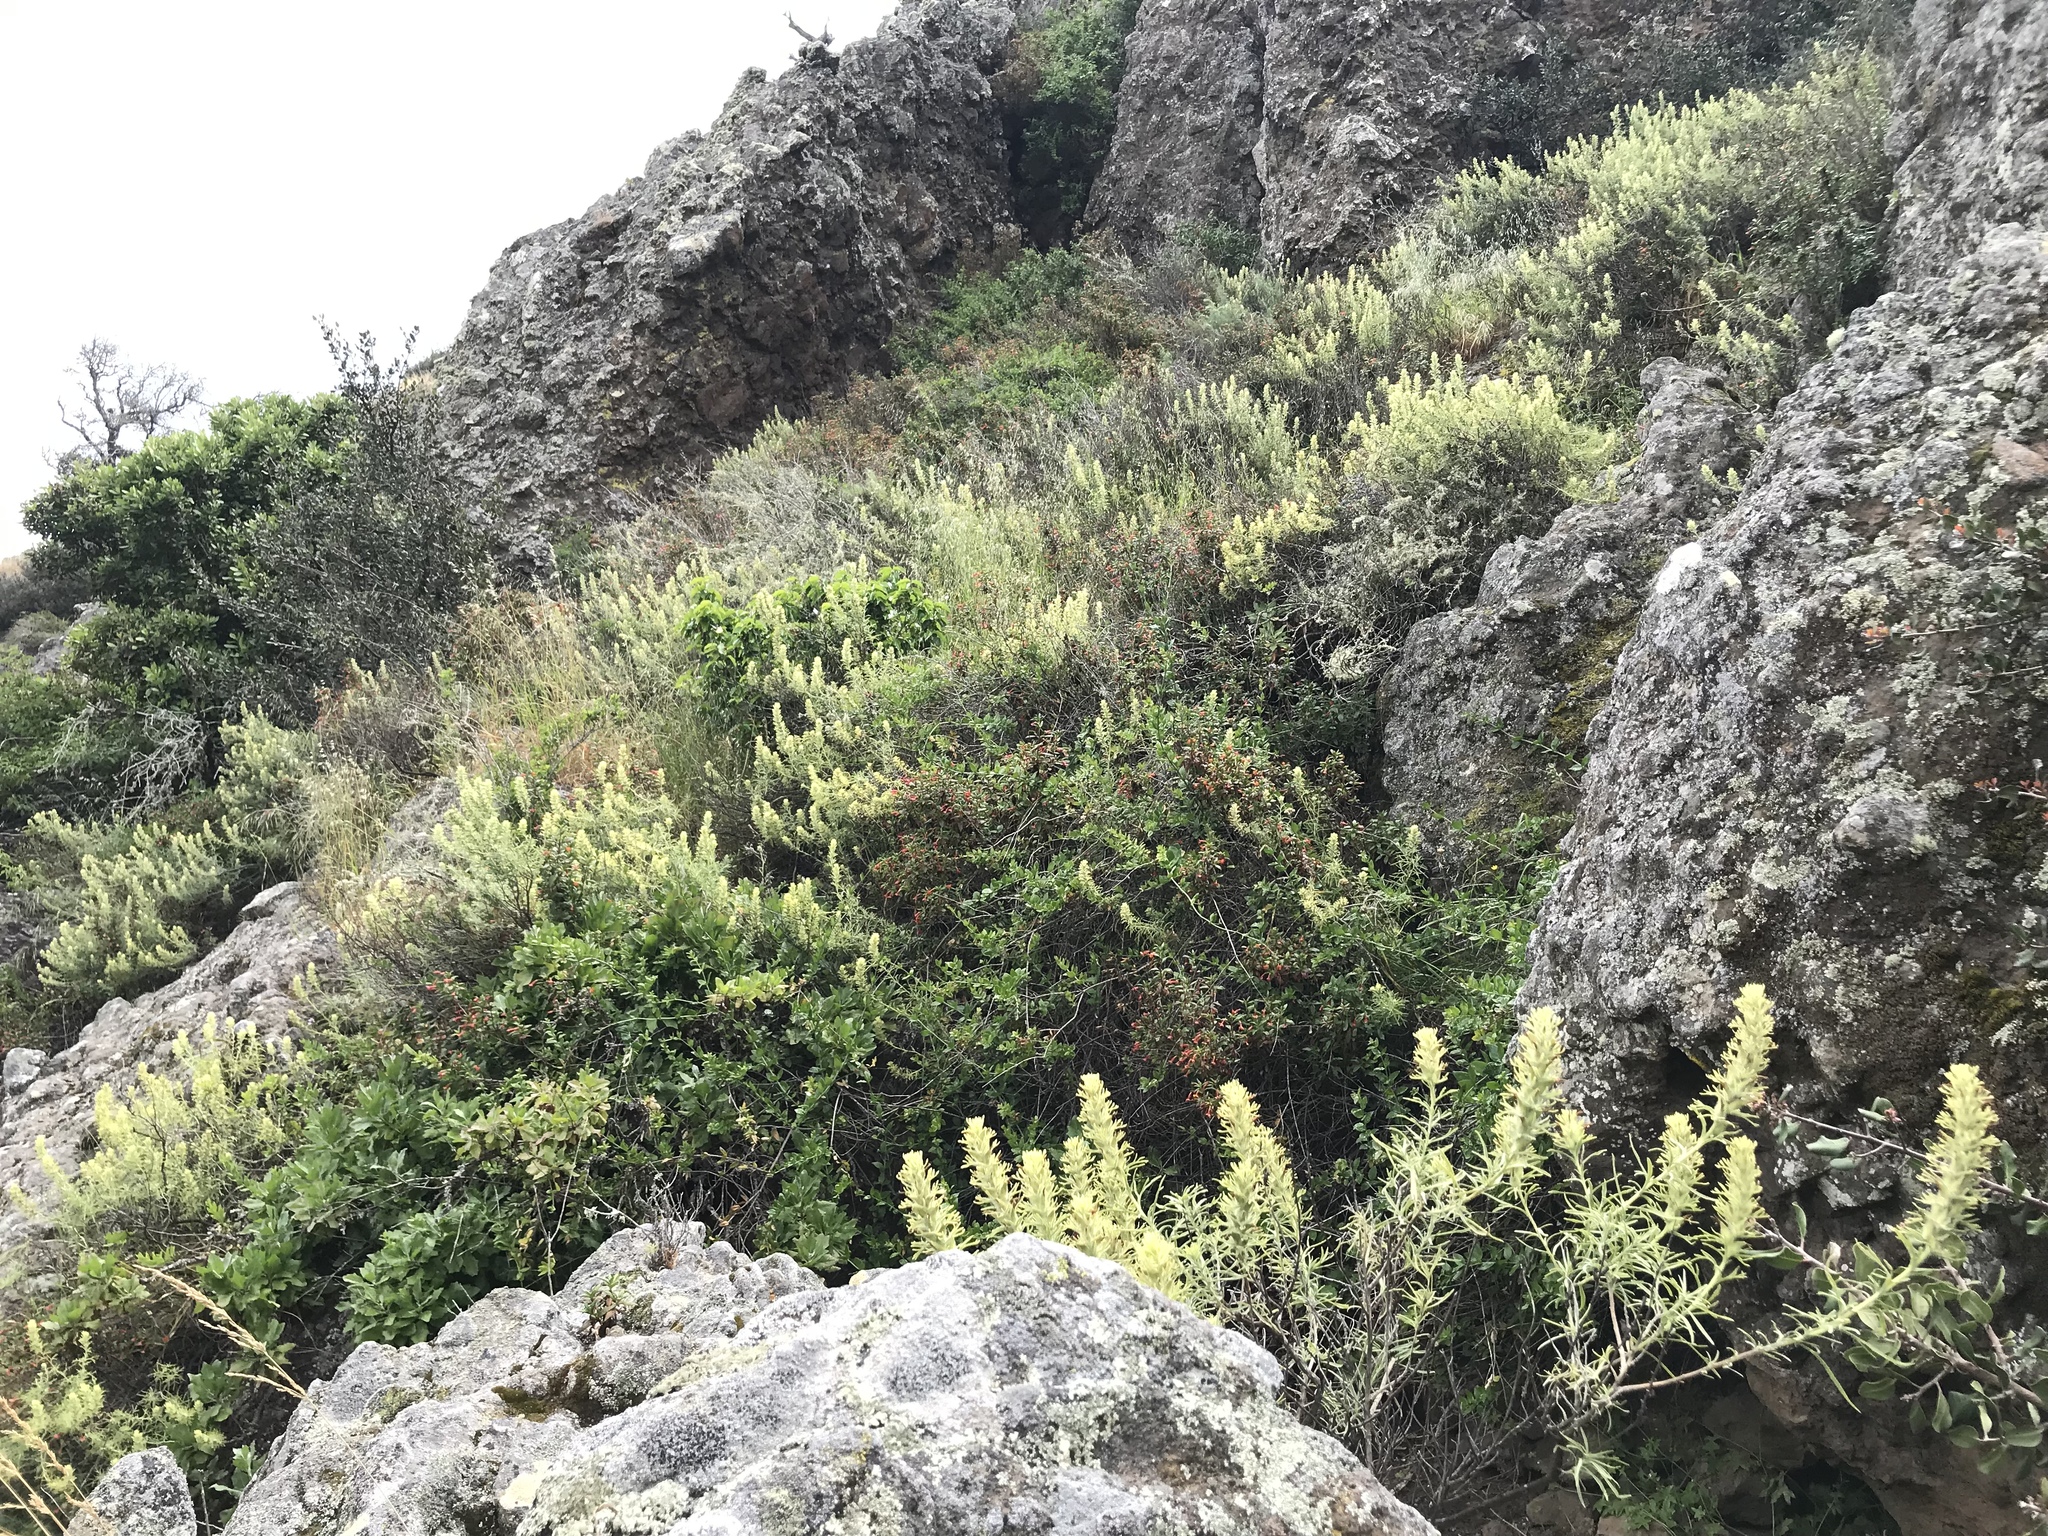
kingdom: Plantae
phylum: Tracheophyta
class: Magnoliopsida
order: Lamiales
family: Orobanchaceae
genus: Castilleja
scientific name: Castilleja grisea
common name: San clemente island indian paintbrush
